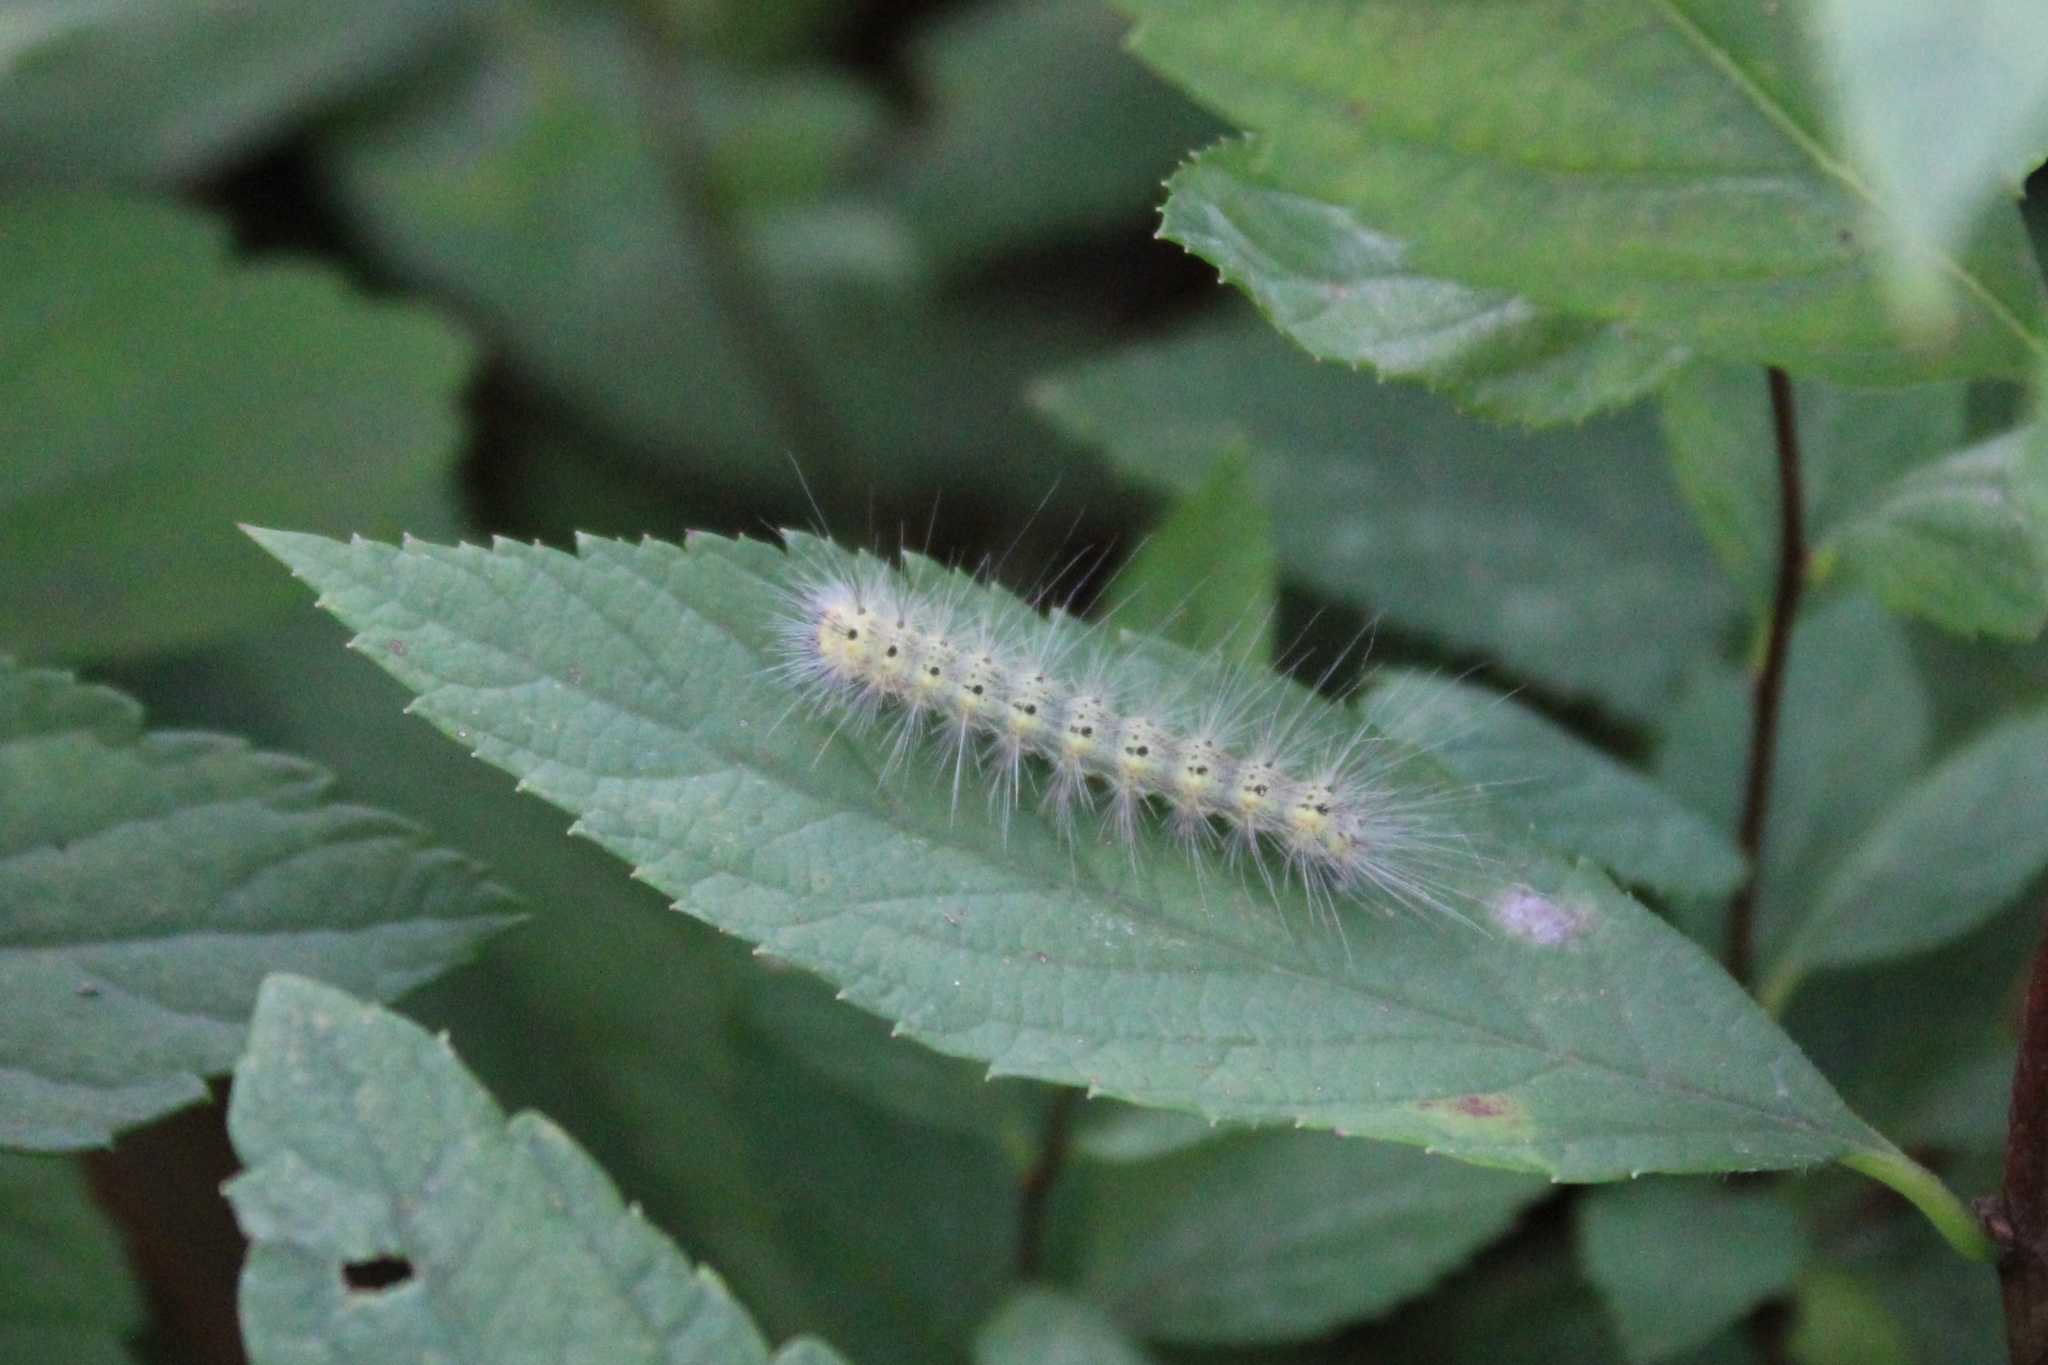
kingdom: Animalia
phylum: Arthropoda
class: Insecta
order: Lepidoptera
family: Erebidae
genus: Hyphantria
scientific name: Hyphantria cunea
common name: American white moth
